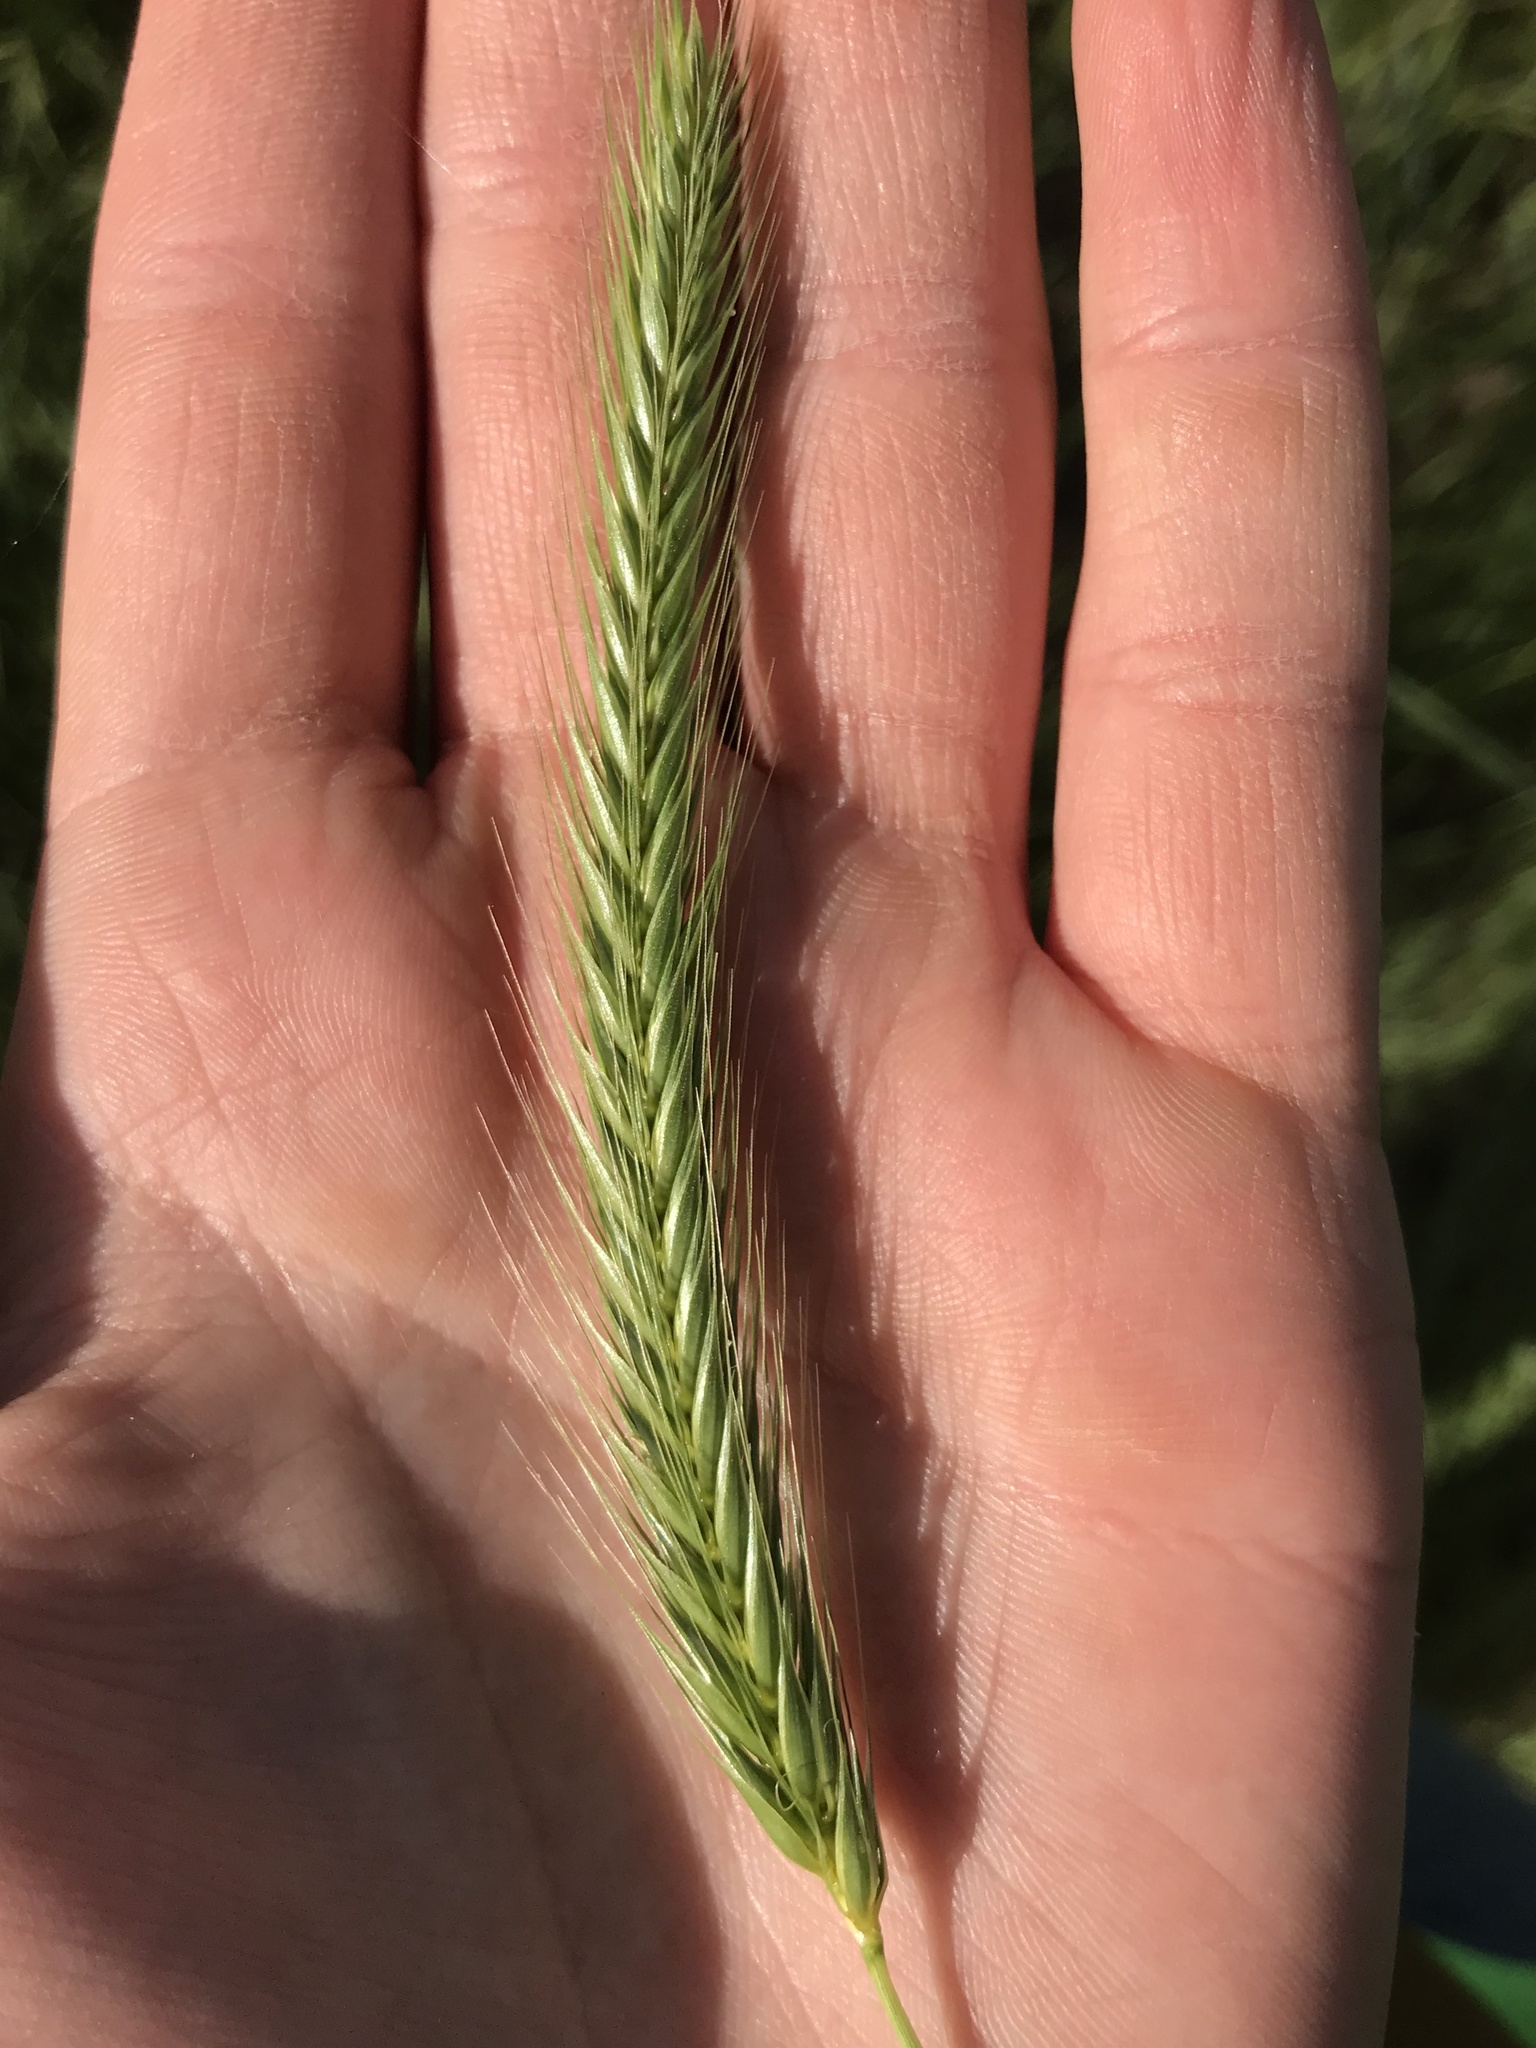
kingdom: Plantae
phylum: Tracheophyta
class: Liliopsida
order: Poales
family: Poaceae
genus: Hordeum
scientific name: Hordeum murinum
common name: Wall barley
